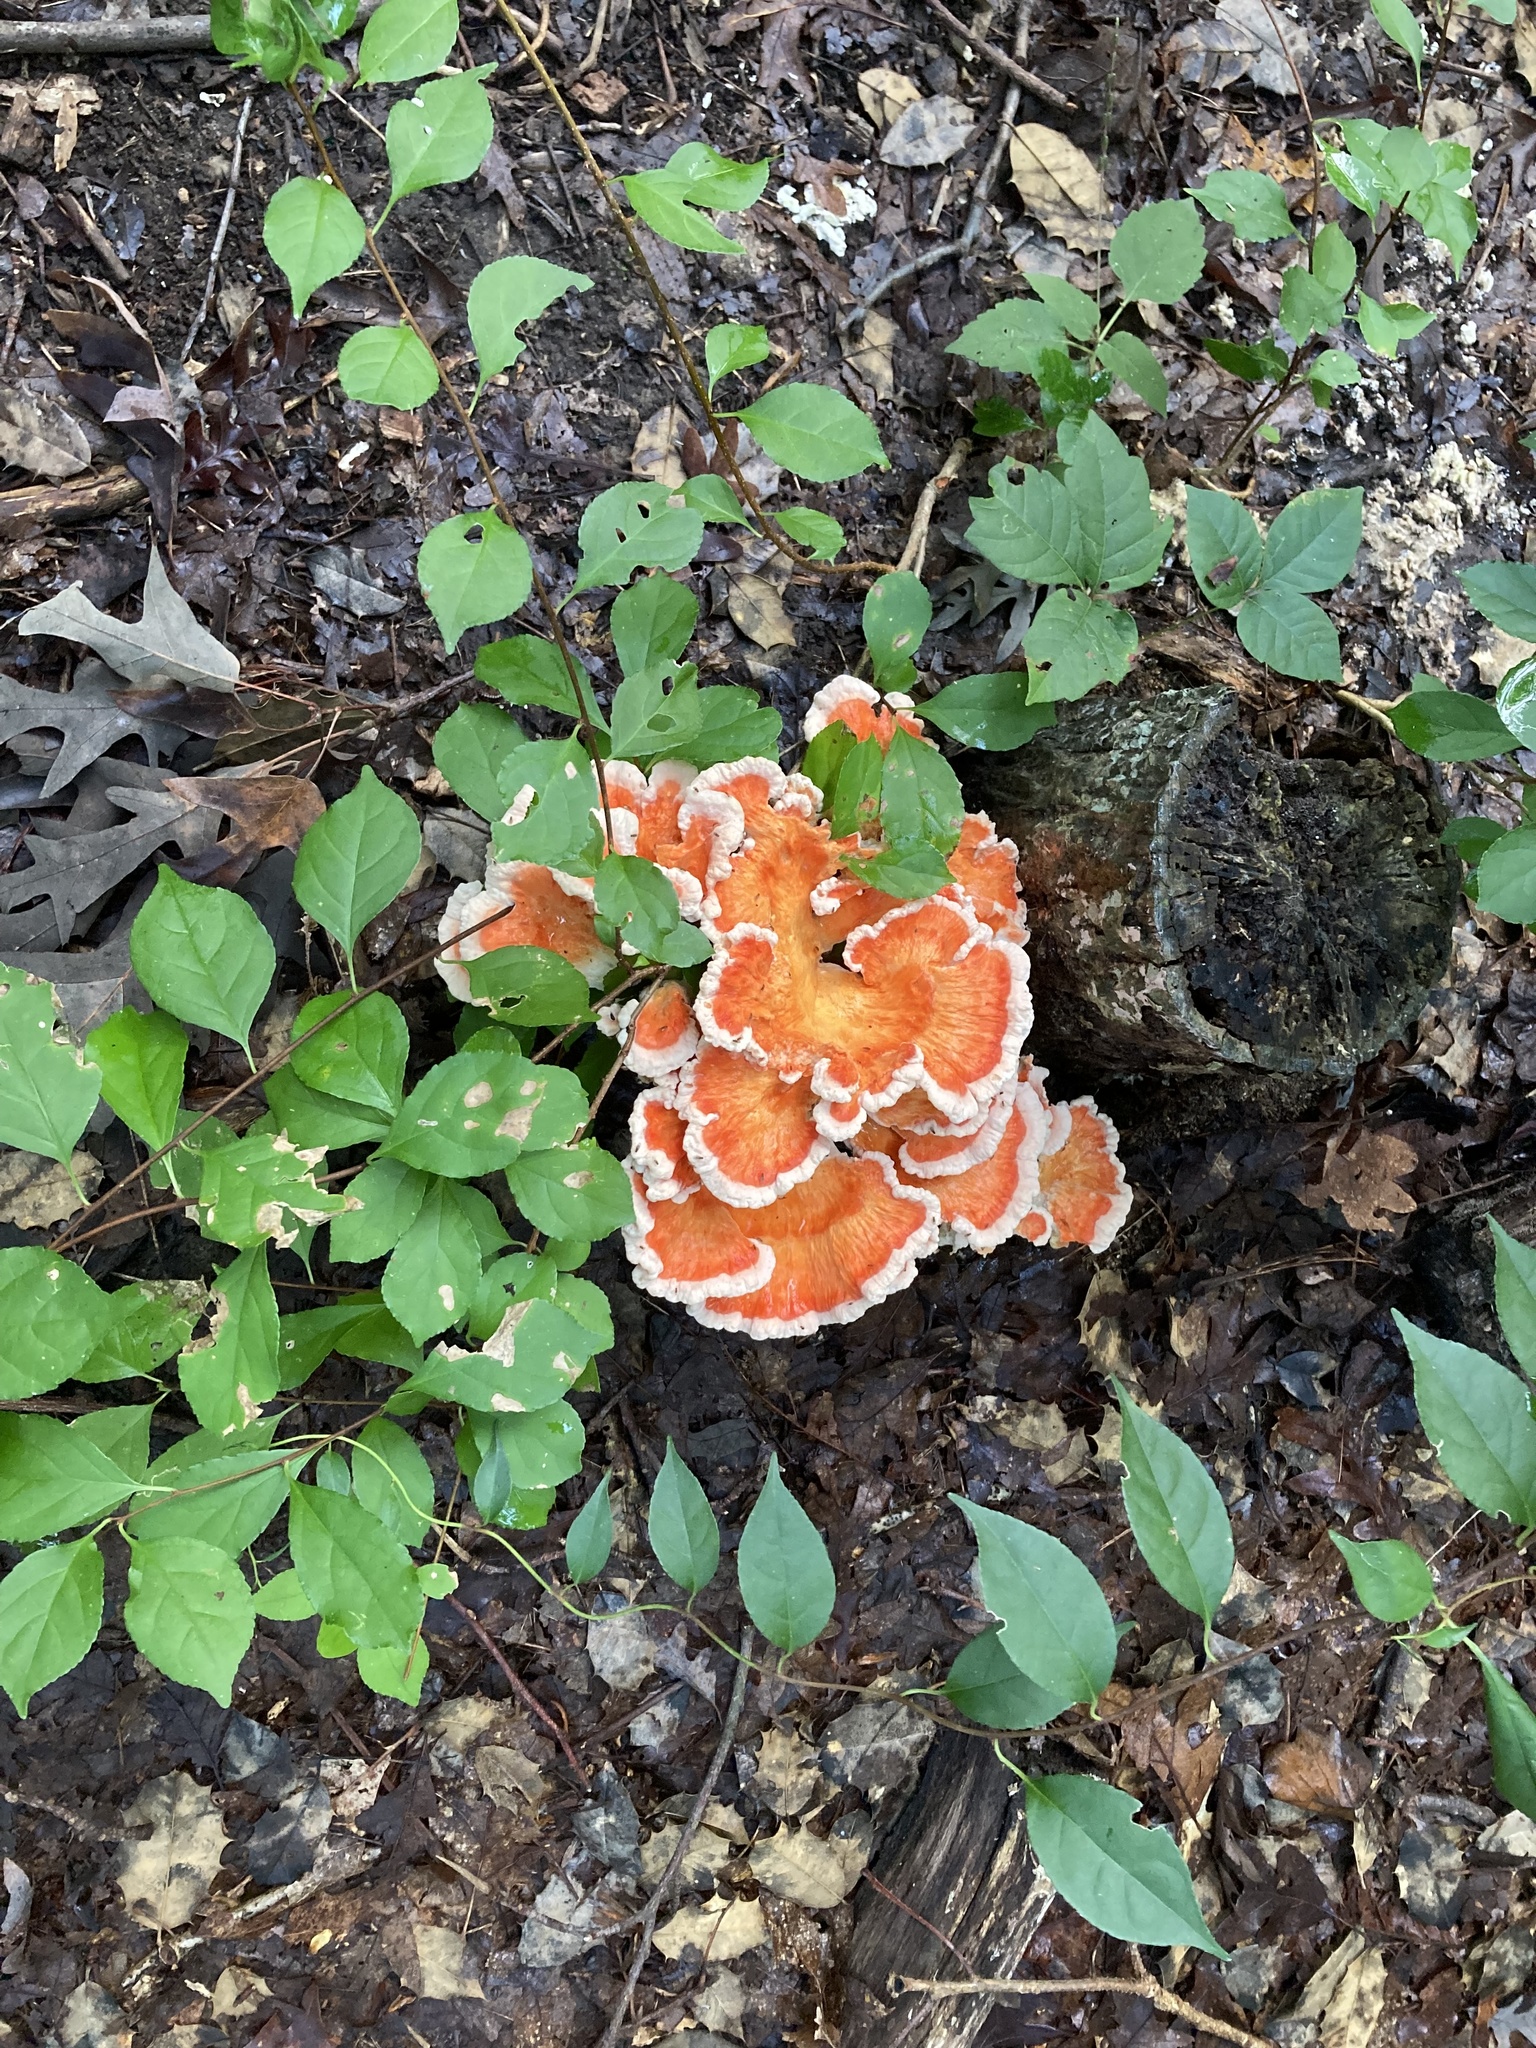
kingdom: Fungi
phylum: Basidiomycota
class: Agaricomycetes
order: Polyporales
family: Laetiporaceae
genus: Laetiporus
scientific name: Laetiporus sulphureus
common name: Chicken of the woods
